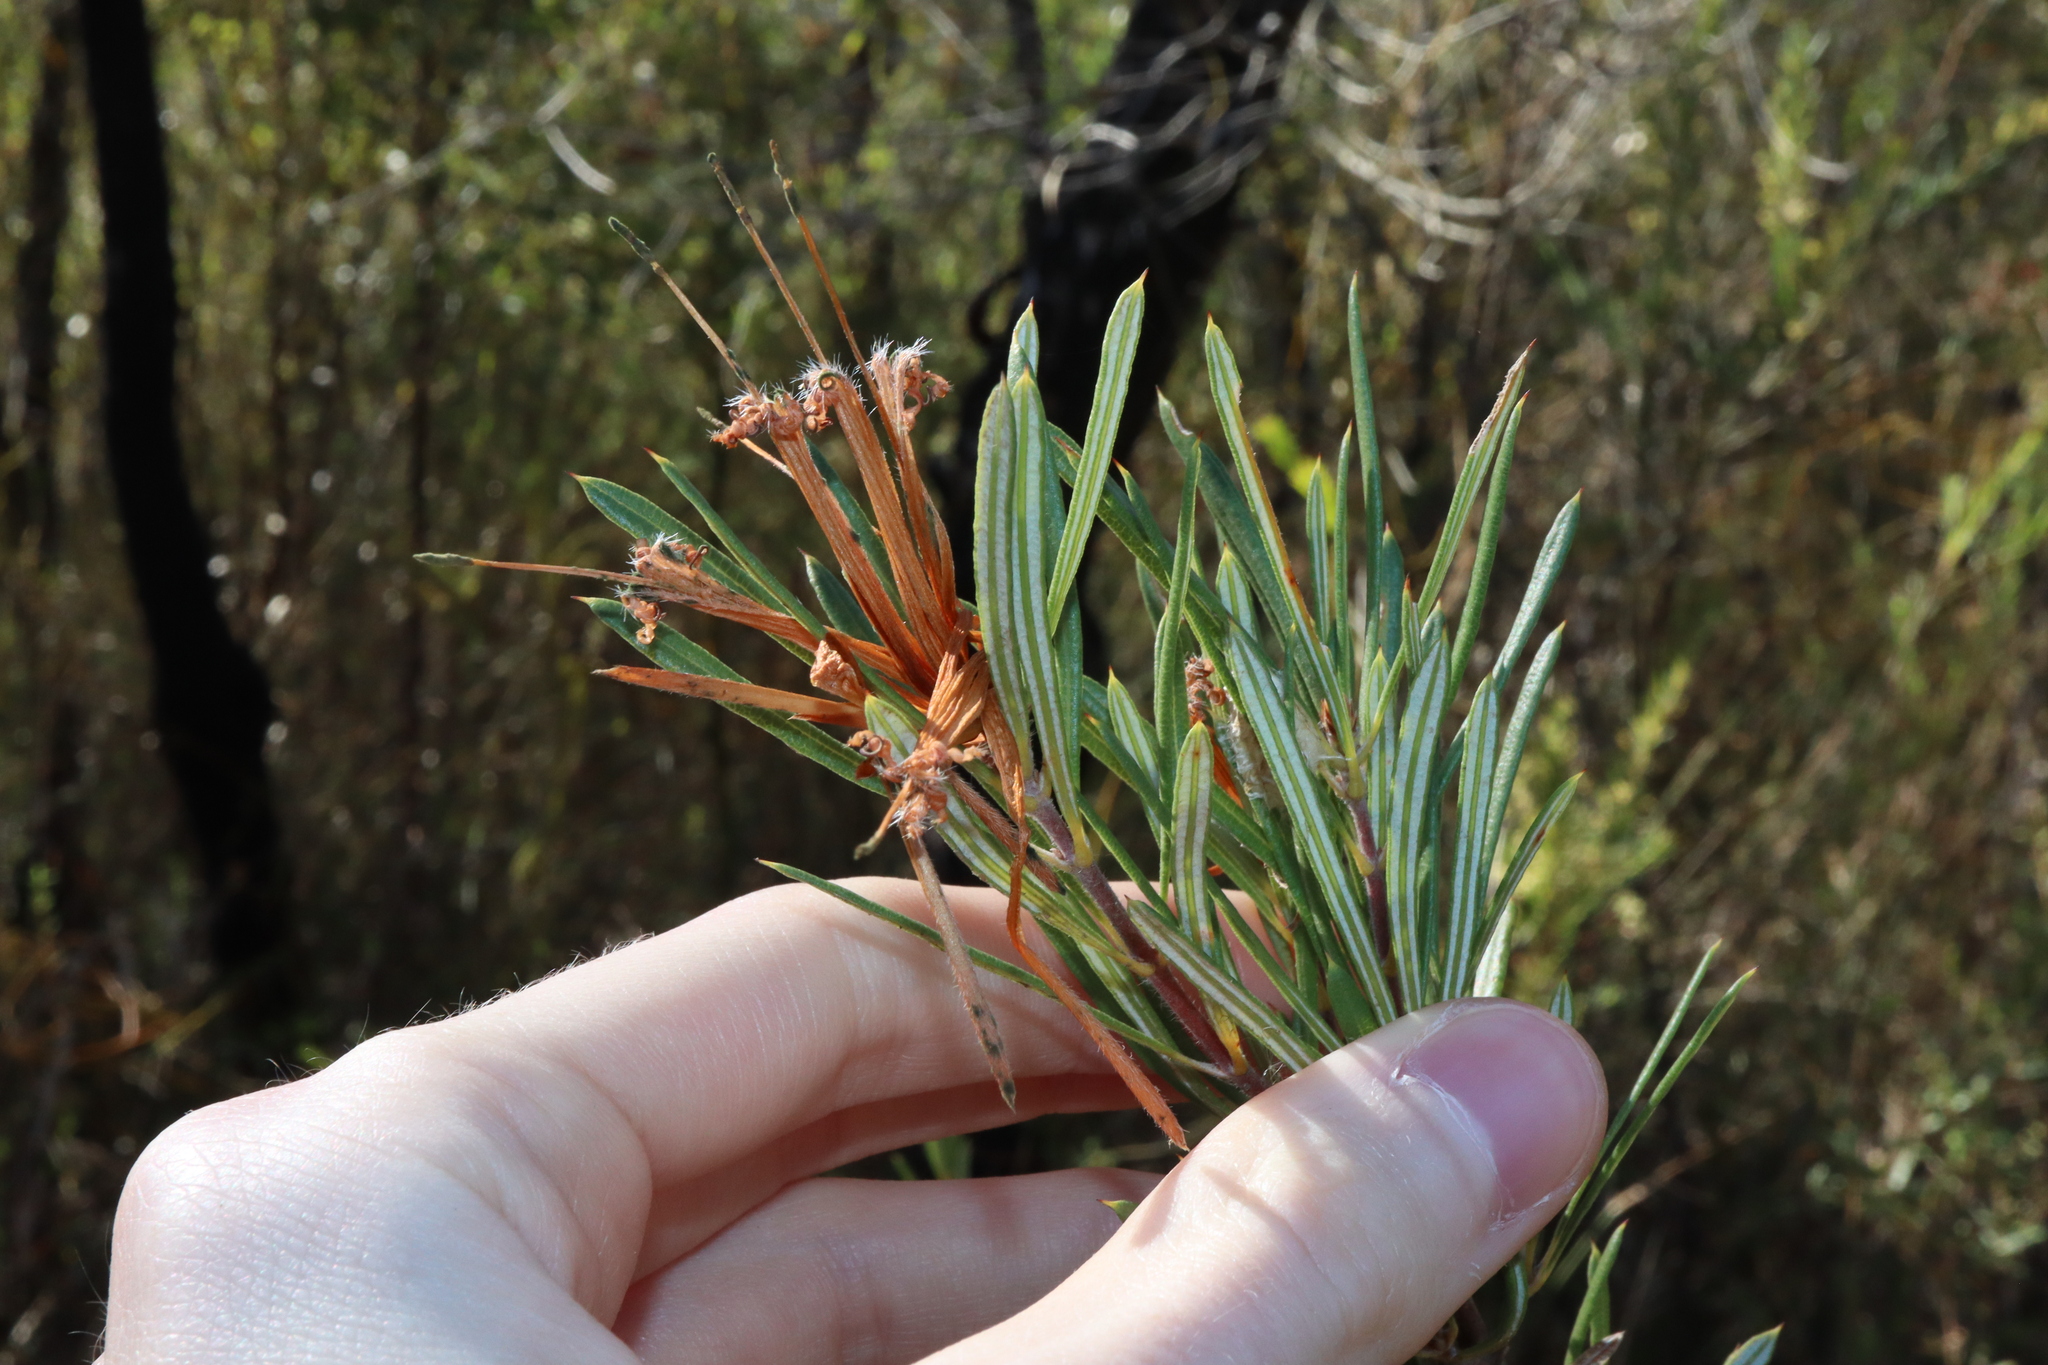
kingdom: Plantae
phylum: Tracheophyta
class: Magnoliopsida
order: Proteales
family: Proteaceae
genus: Lambertia
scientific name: Lambertia formosa
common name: Mountain-devil
